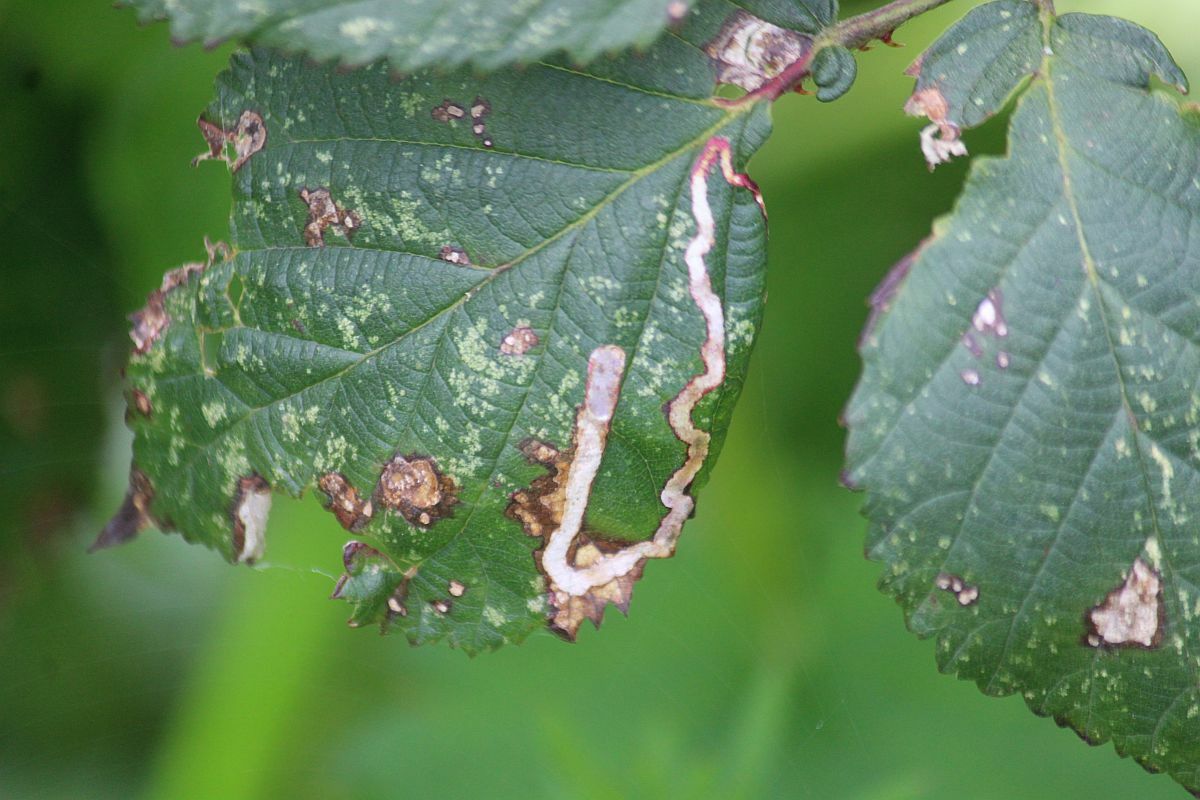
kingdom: Animalia
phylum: Arthropoda
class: Insecta
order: Lepidoptera
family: Nepticulidae
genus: Stigmella
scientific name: Stigmella aurella
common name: Golden pigmy
